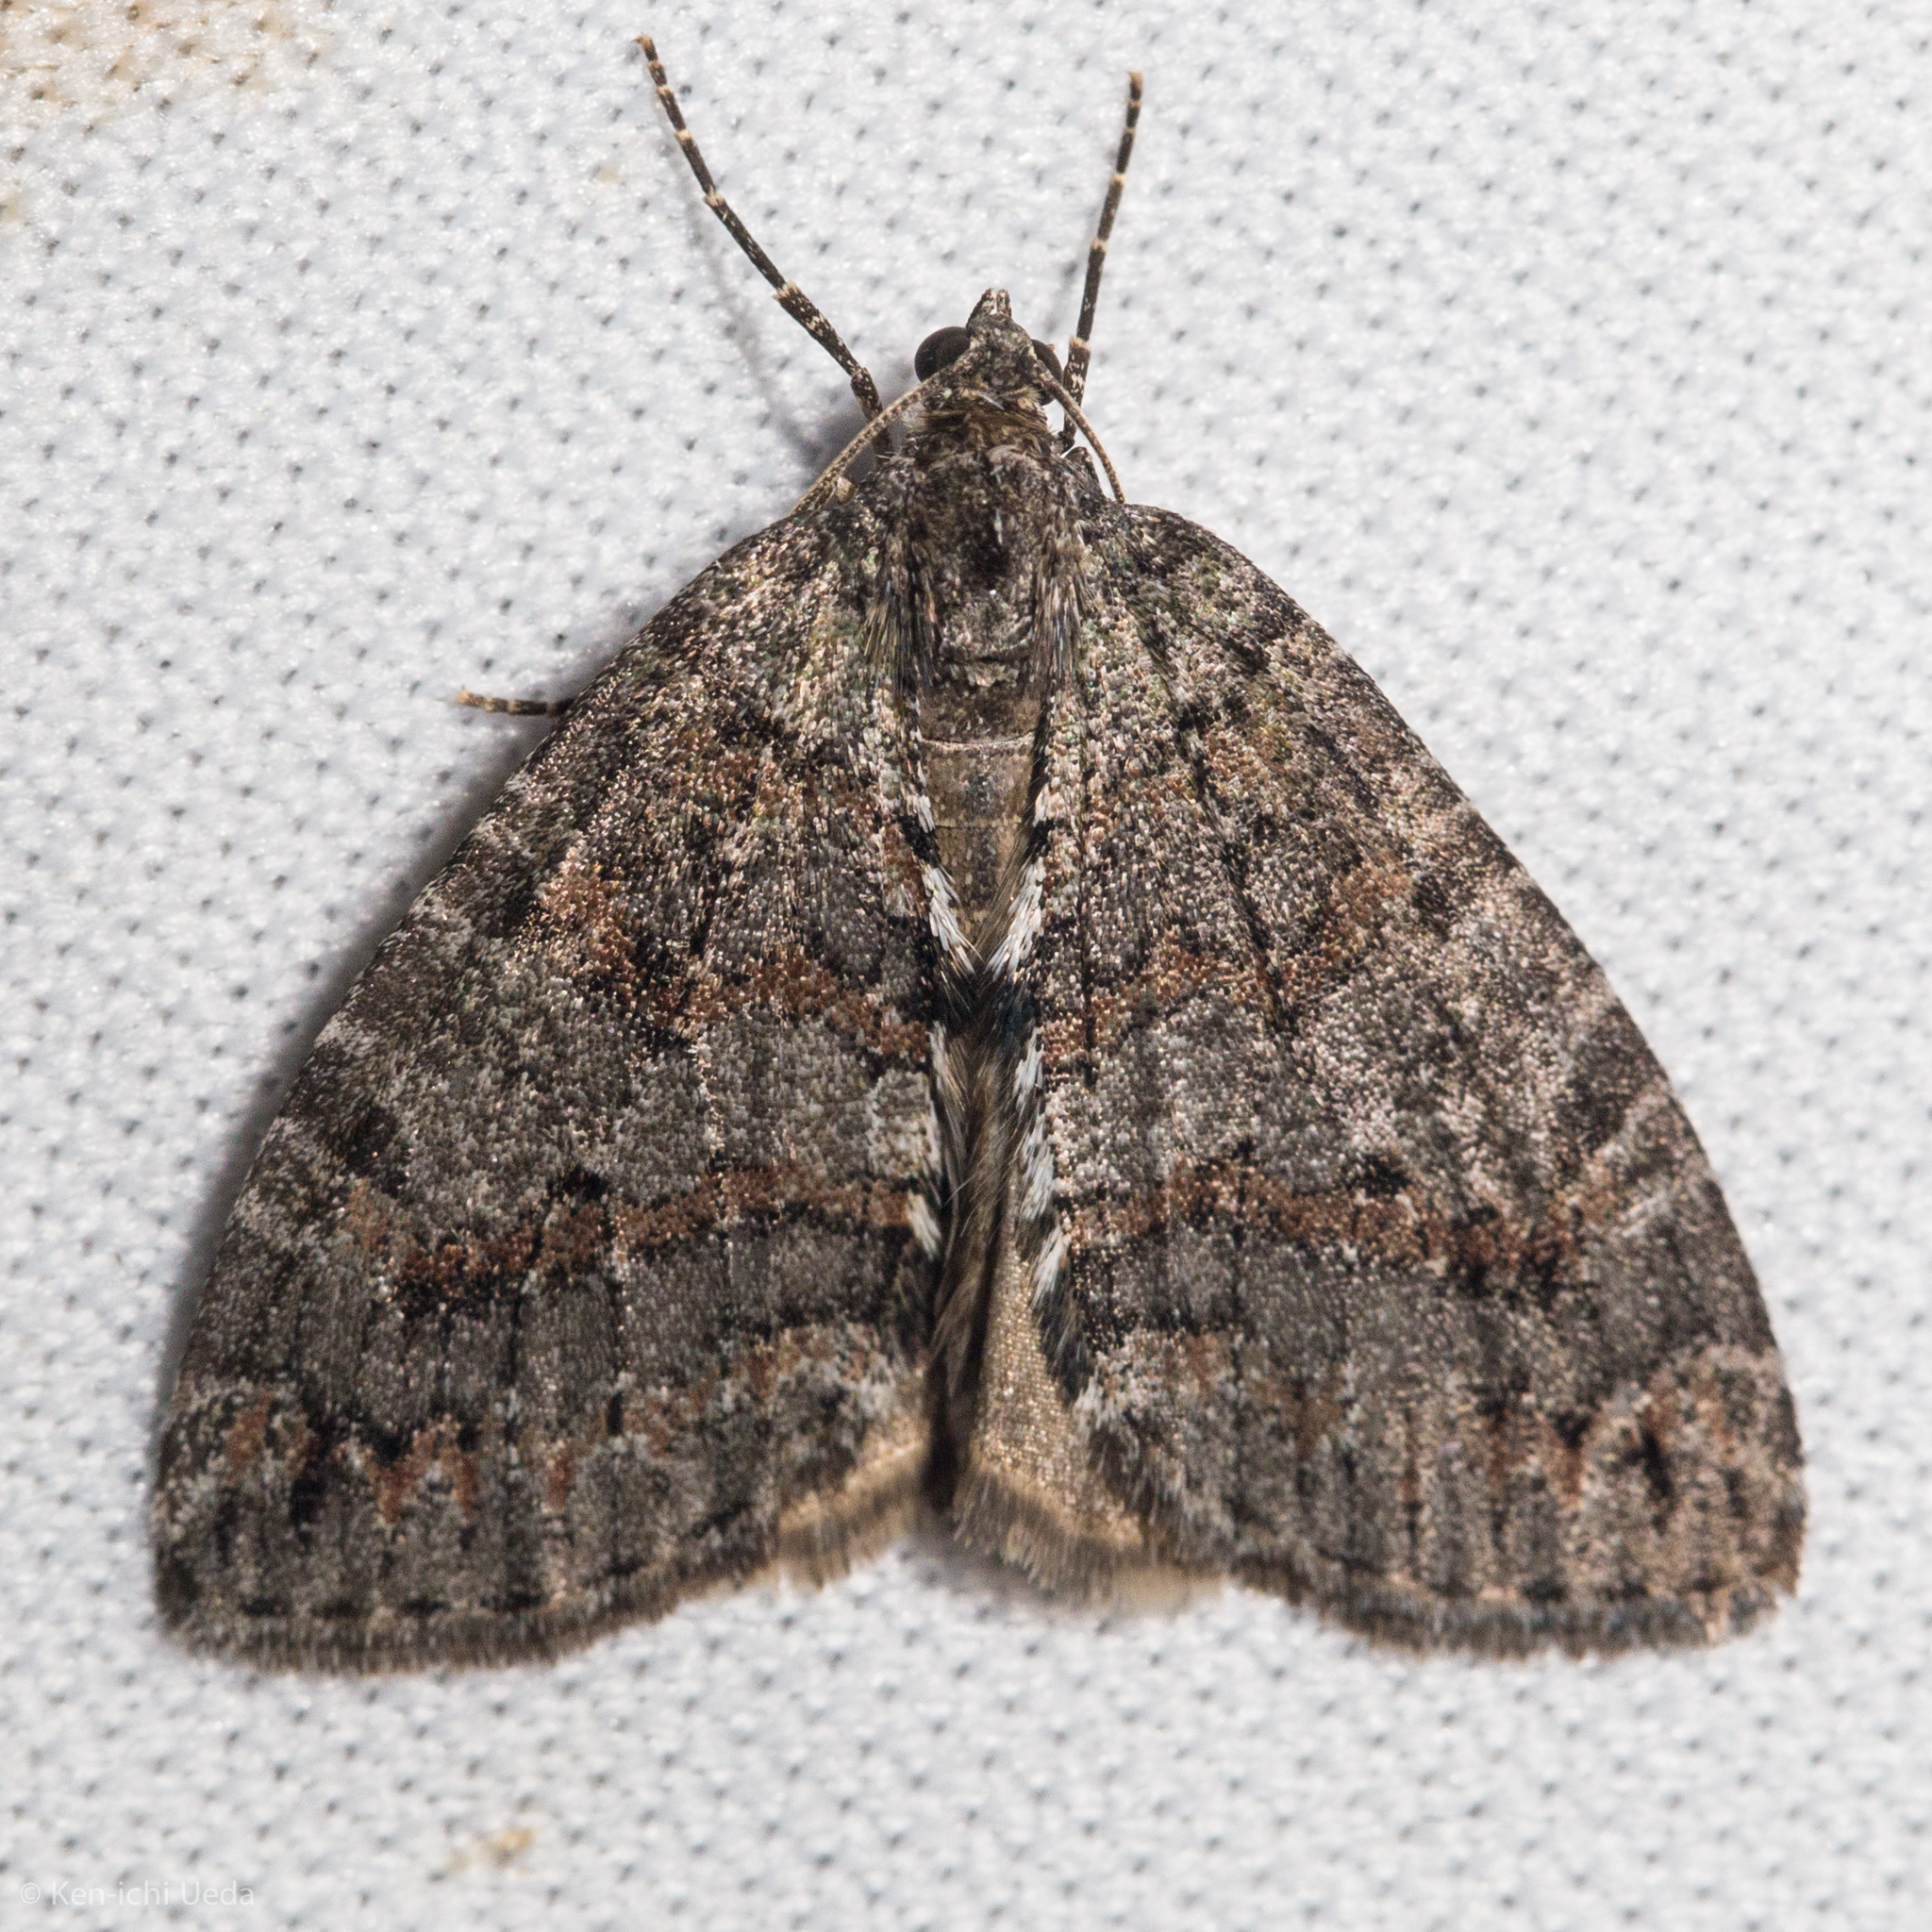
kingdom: Animalia
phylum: Arthropoda
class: Insecta
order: Lepidoptera
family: Geometridae
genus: Hydriomena
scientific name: Hydriomena nubilofasciata
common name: Oak winter highflier moth
